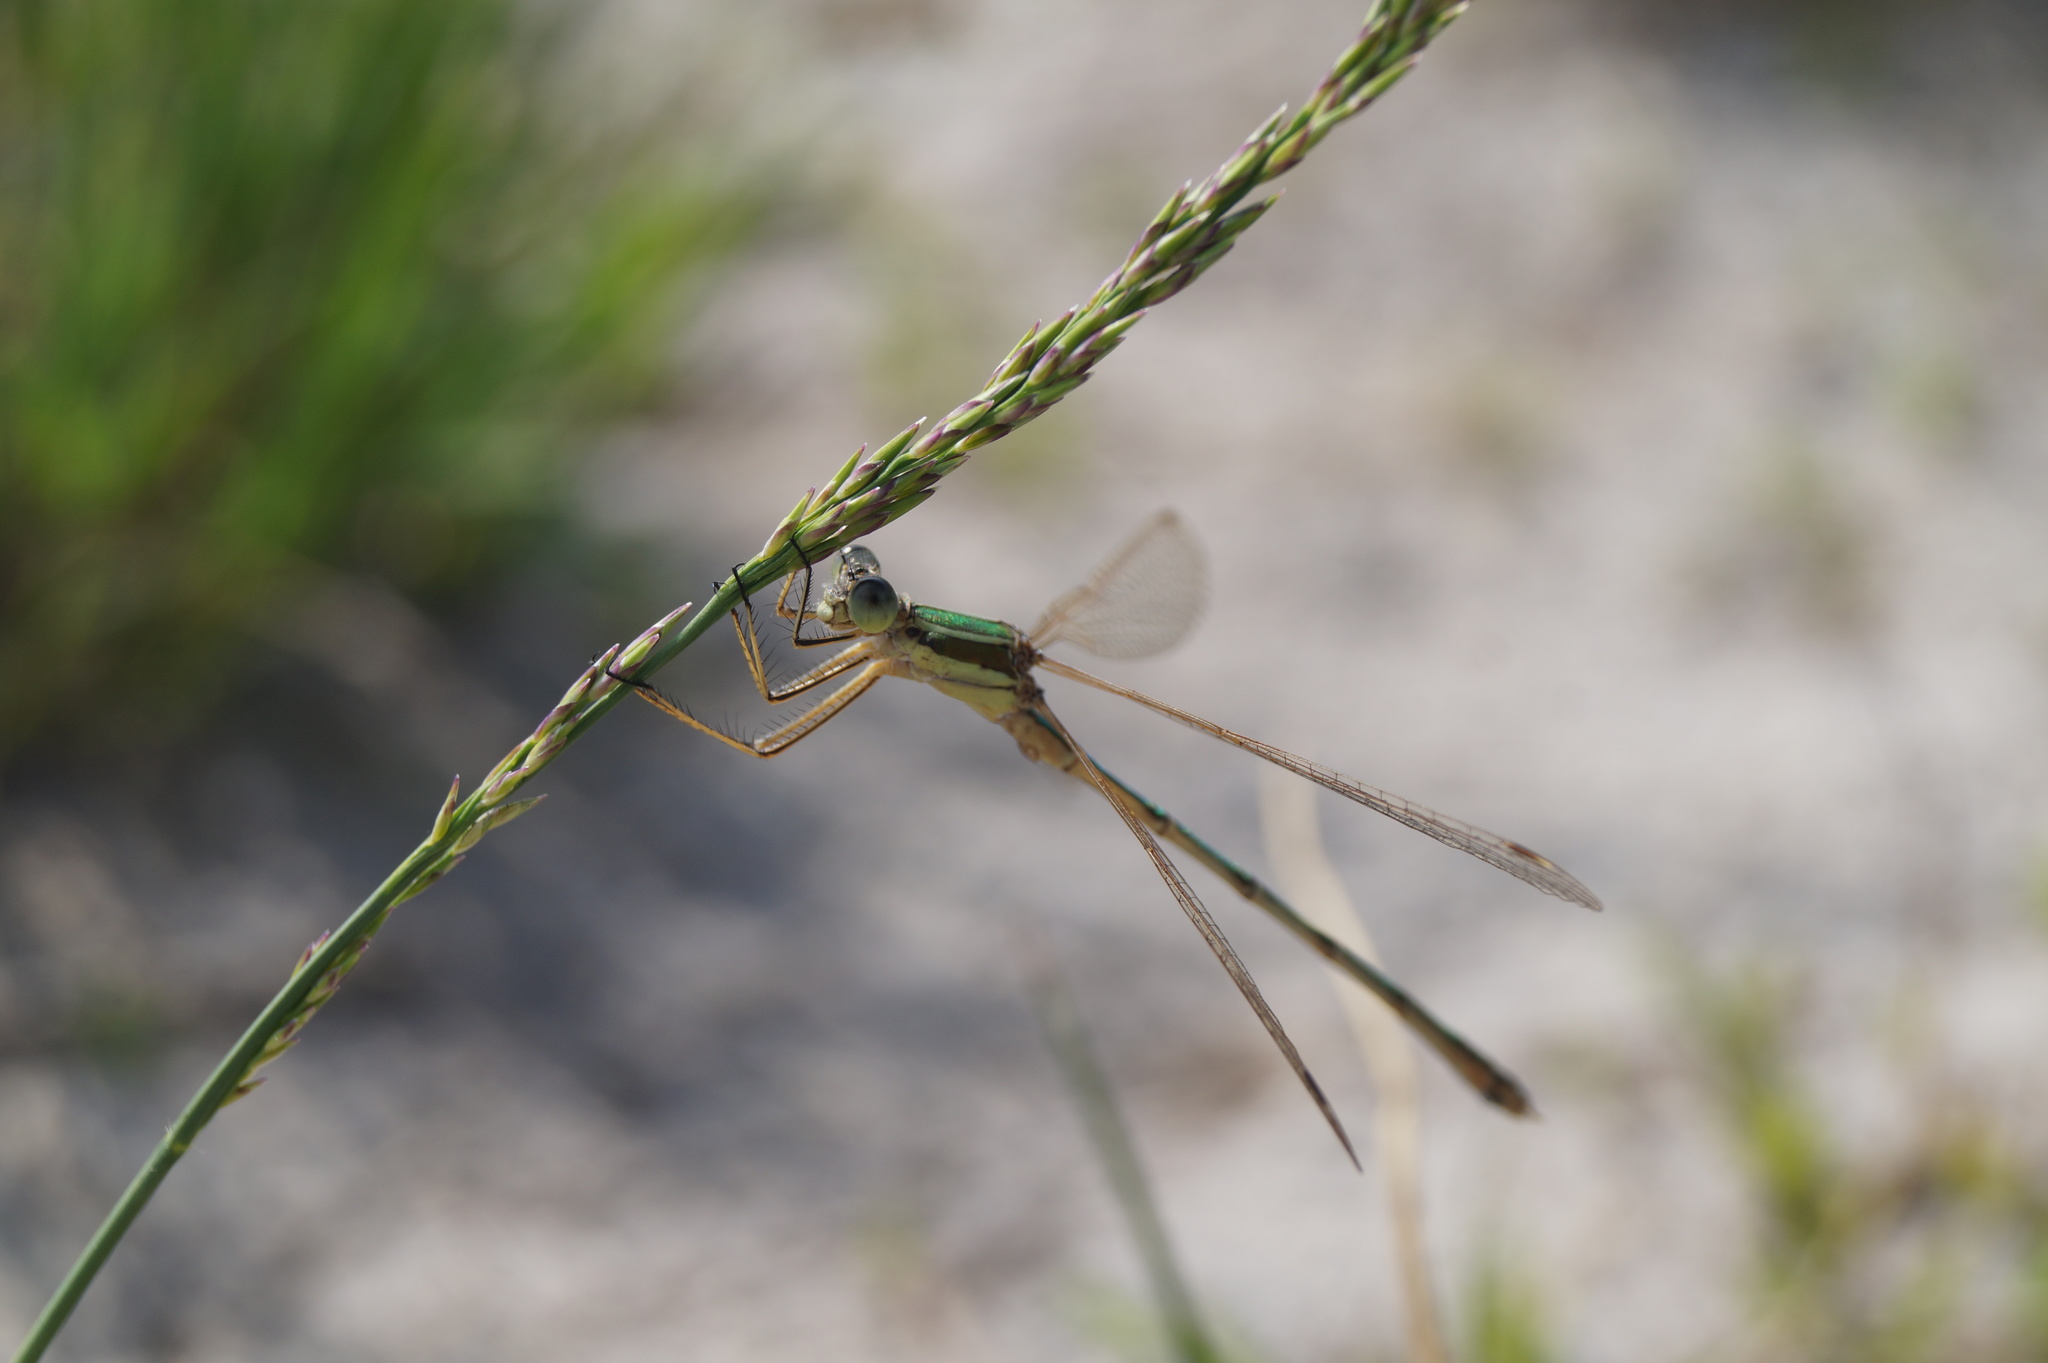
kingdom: Animalia
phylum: Arthropoda
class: Insecta
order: Odonata
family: Lestidae
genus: Lestes
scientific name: Lestes barbarus
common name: Migrant spreadwing
